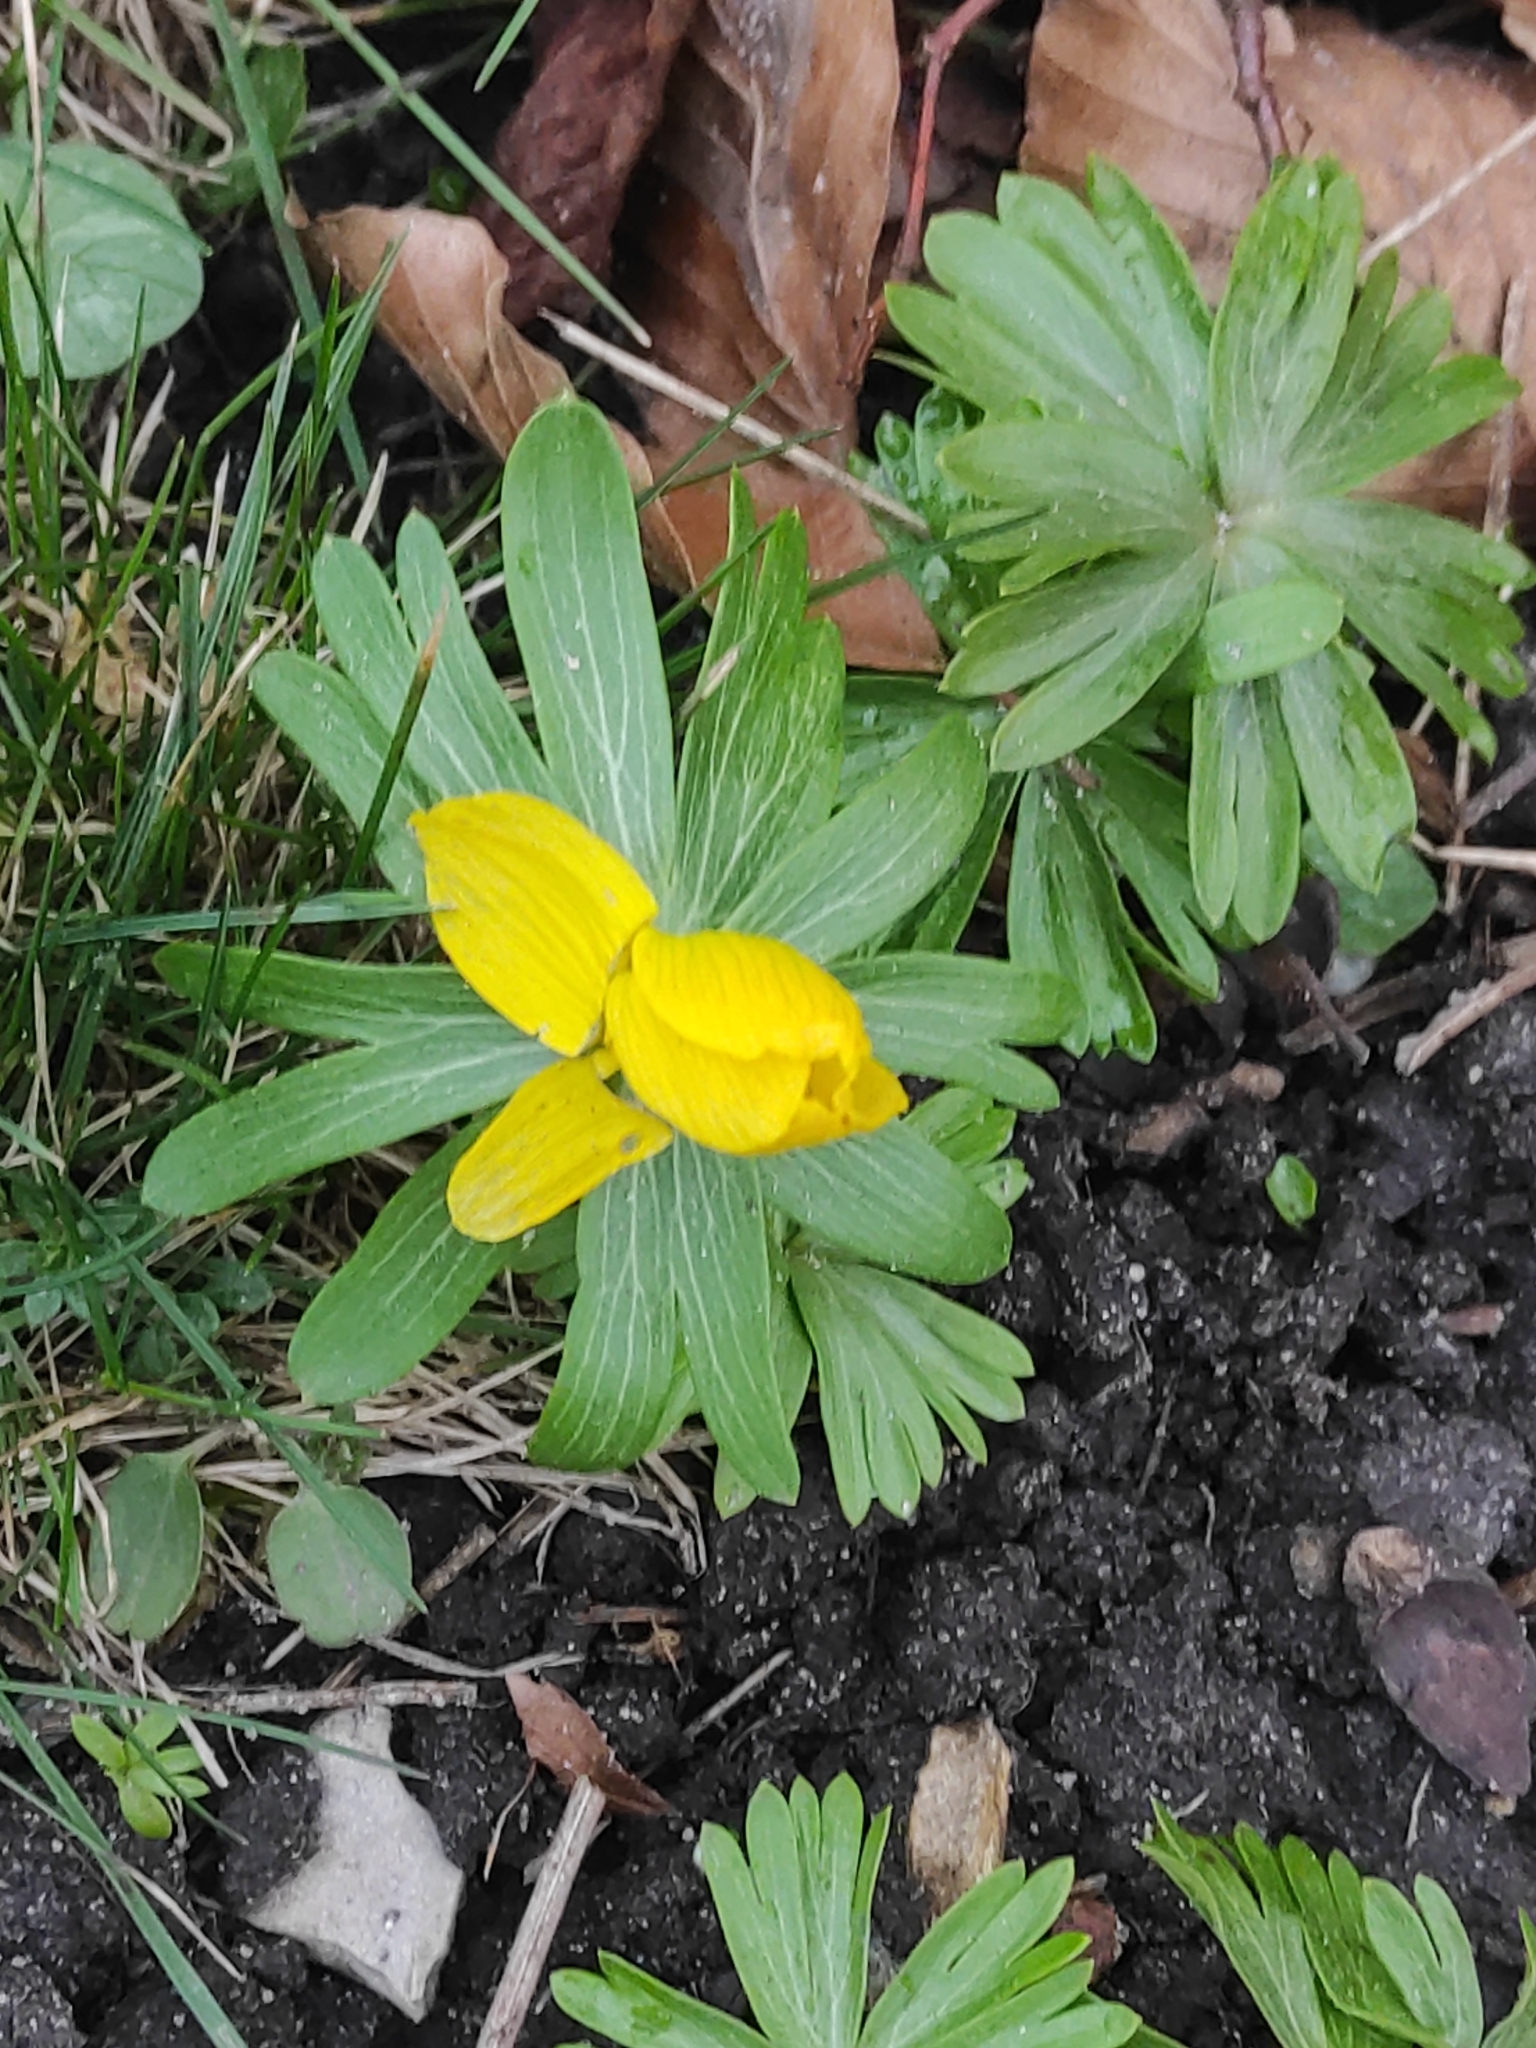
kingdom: Plantae
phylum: Tracheophyta
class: Magnoliopsida
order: Ranunculales
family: Ranunculaceae
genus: Eranthis
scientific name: Eranthis hyemalis
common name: Winter aconite
